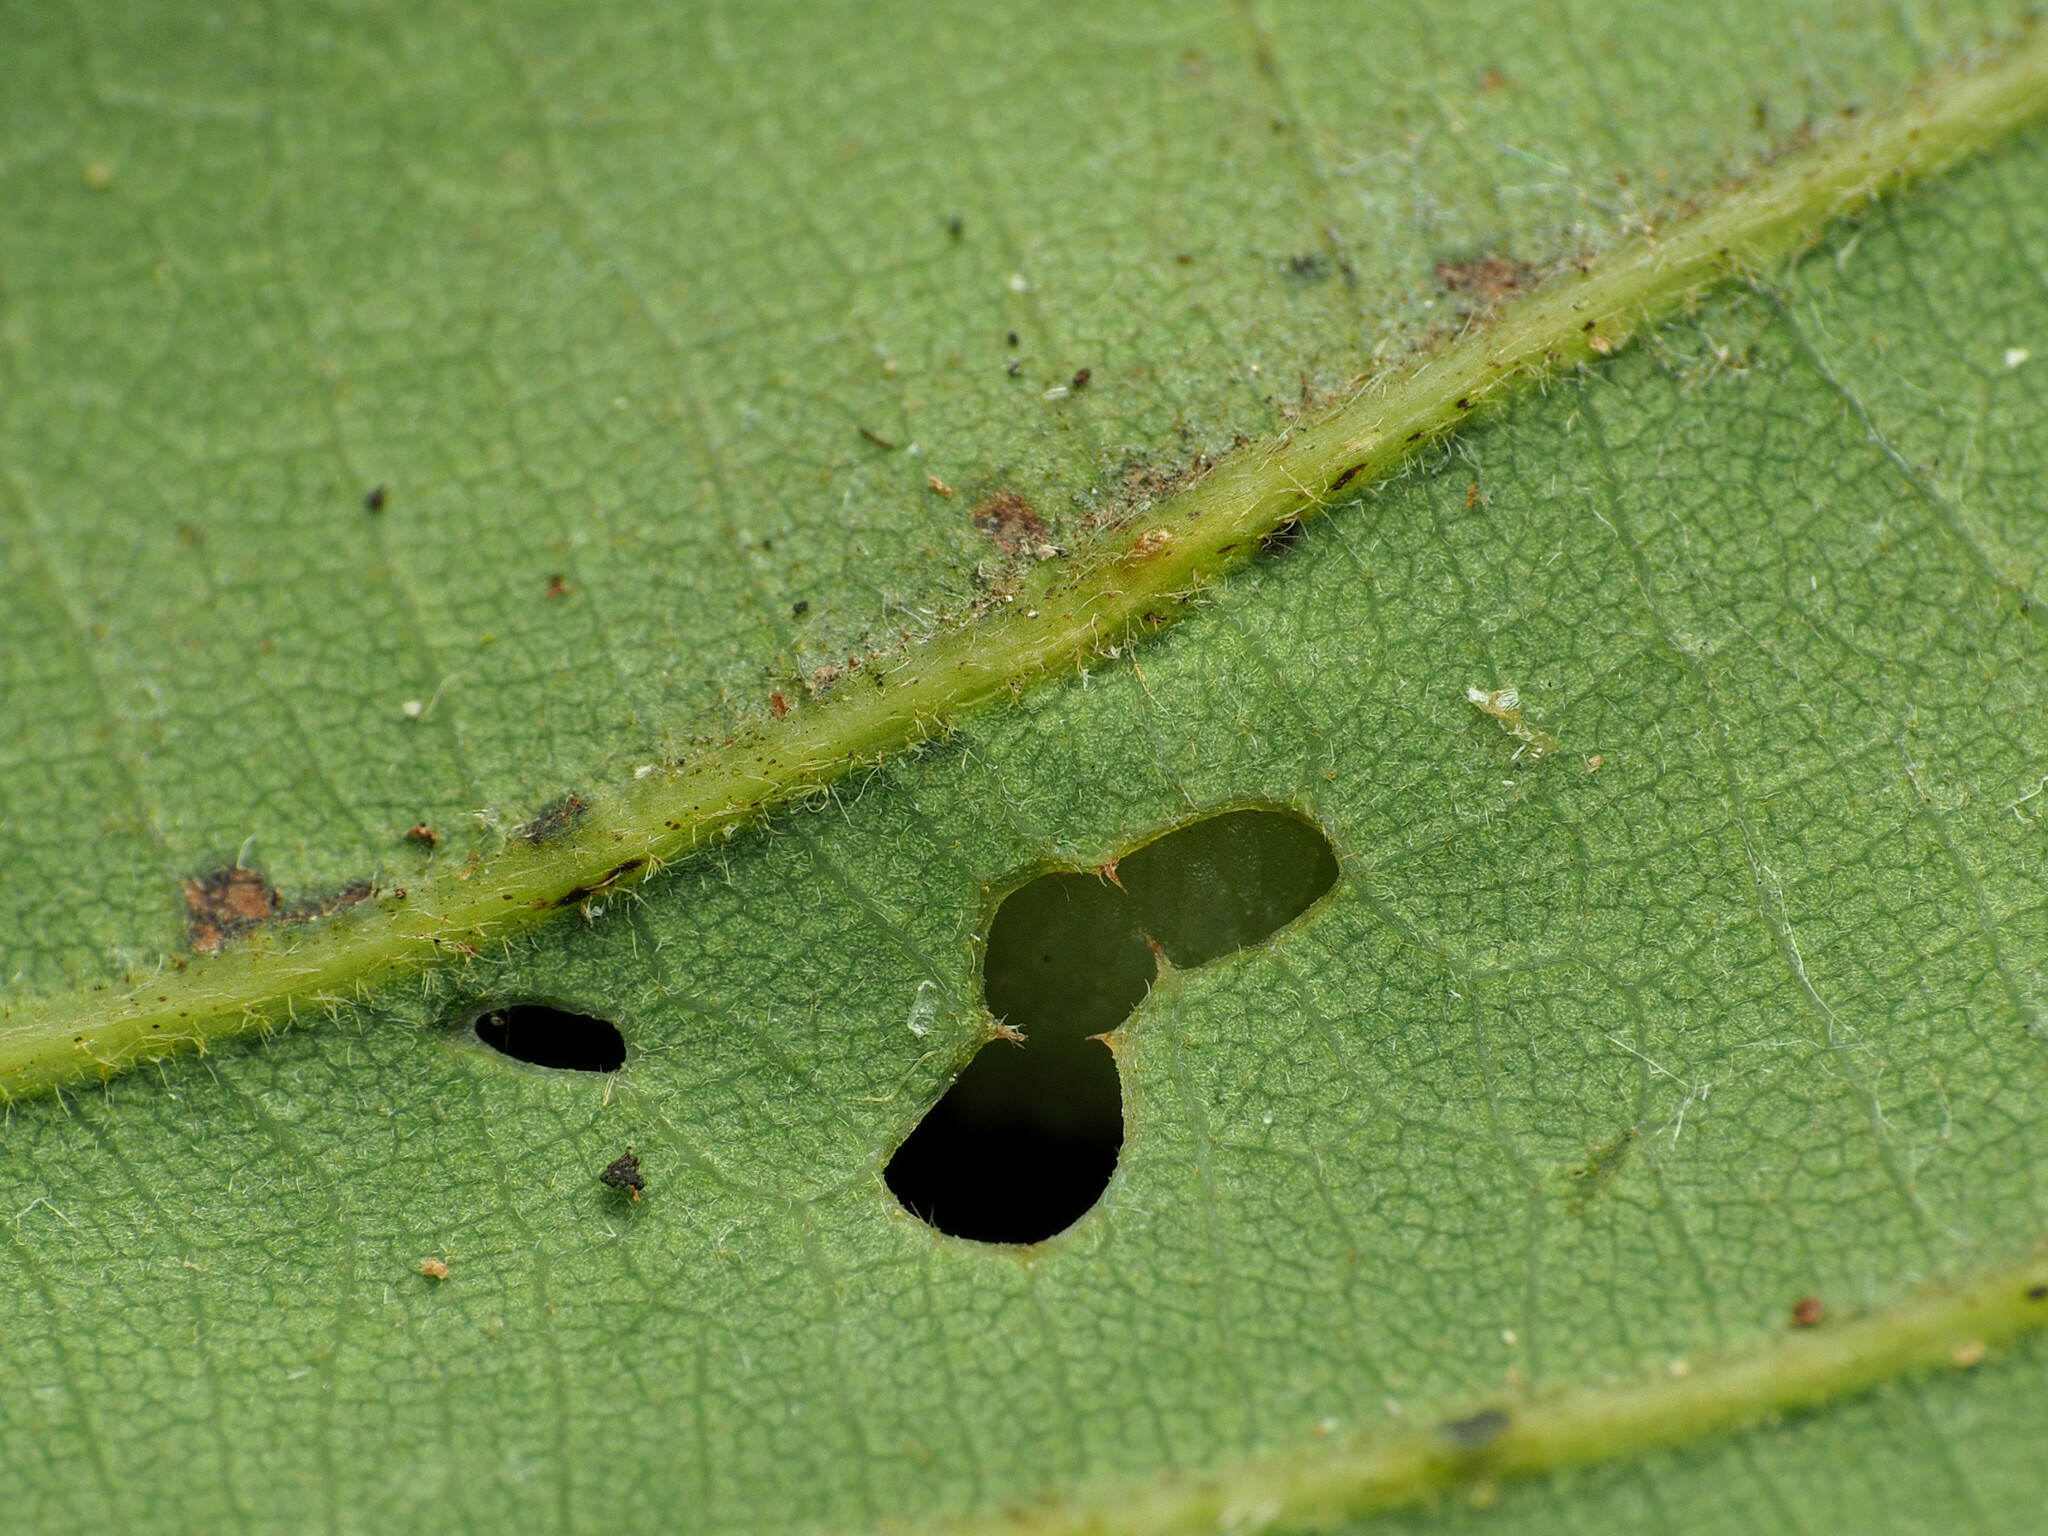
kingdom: Animalia
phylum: Arthropoda
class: Insecta
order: Hymenoptera
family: Cynipidae
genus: Acraspis
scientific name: Acraspis quercushirta
